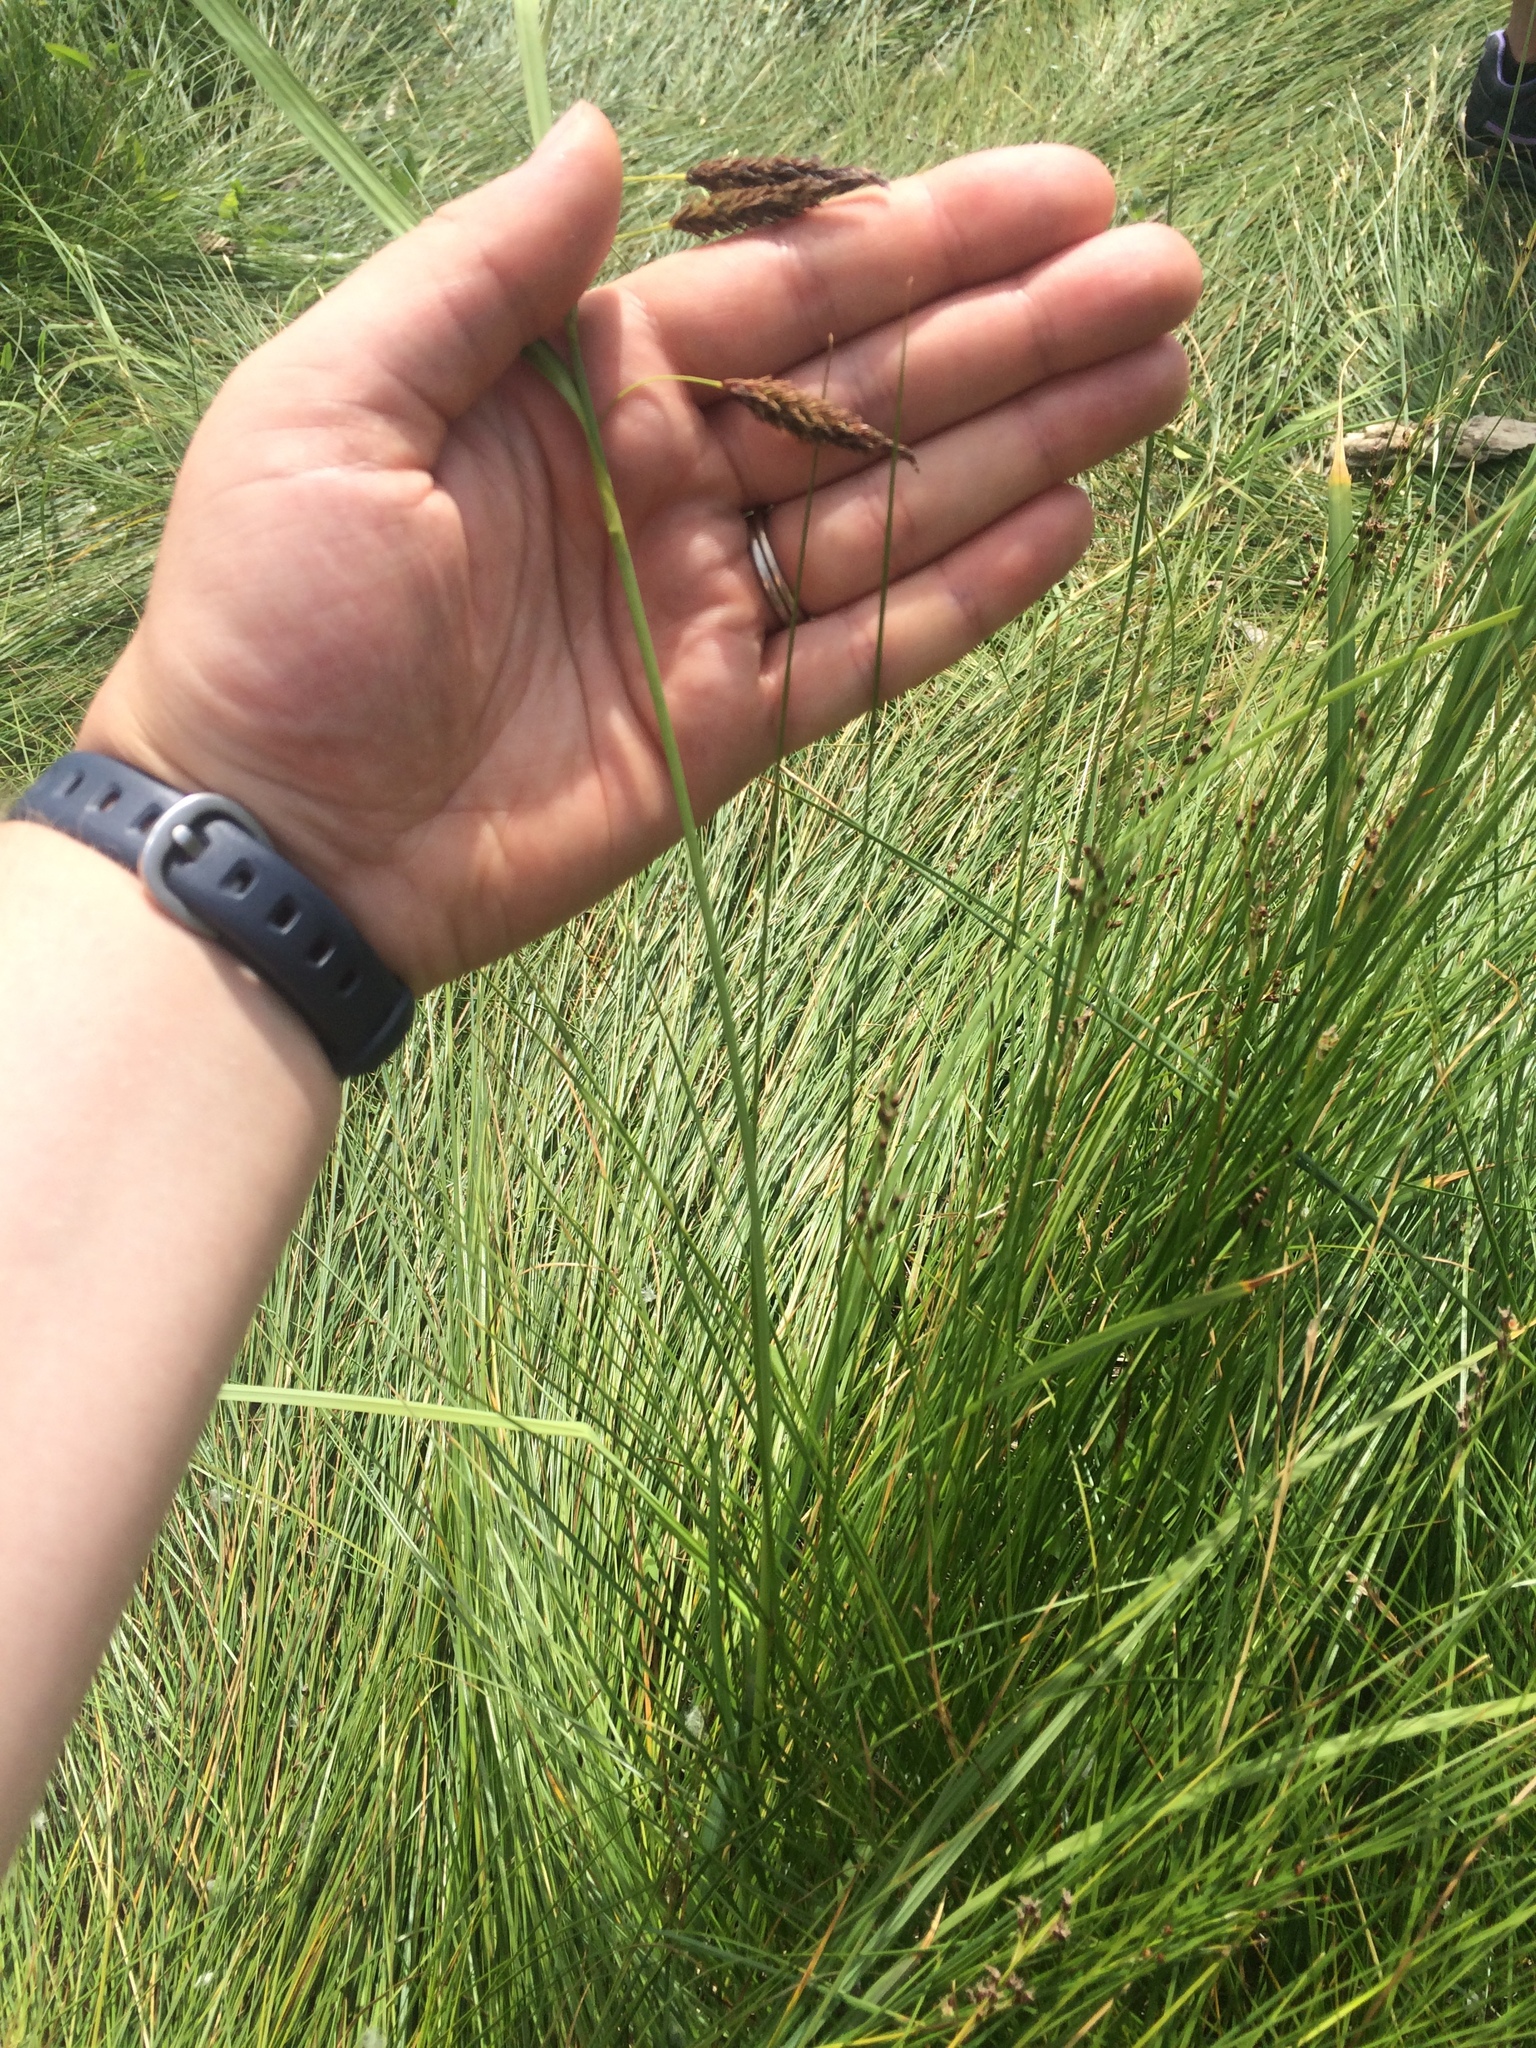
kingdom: Plantae
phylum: Tracheophyta
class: Liliopsida
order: Poales
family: Cyperaceae
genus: Carex
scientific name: Carex lyngbyei
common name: Lyngbye's sedge
